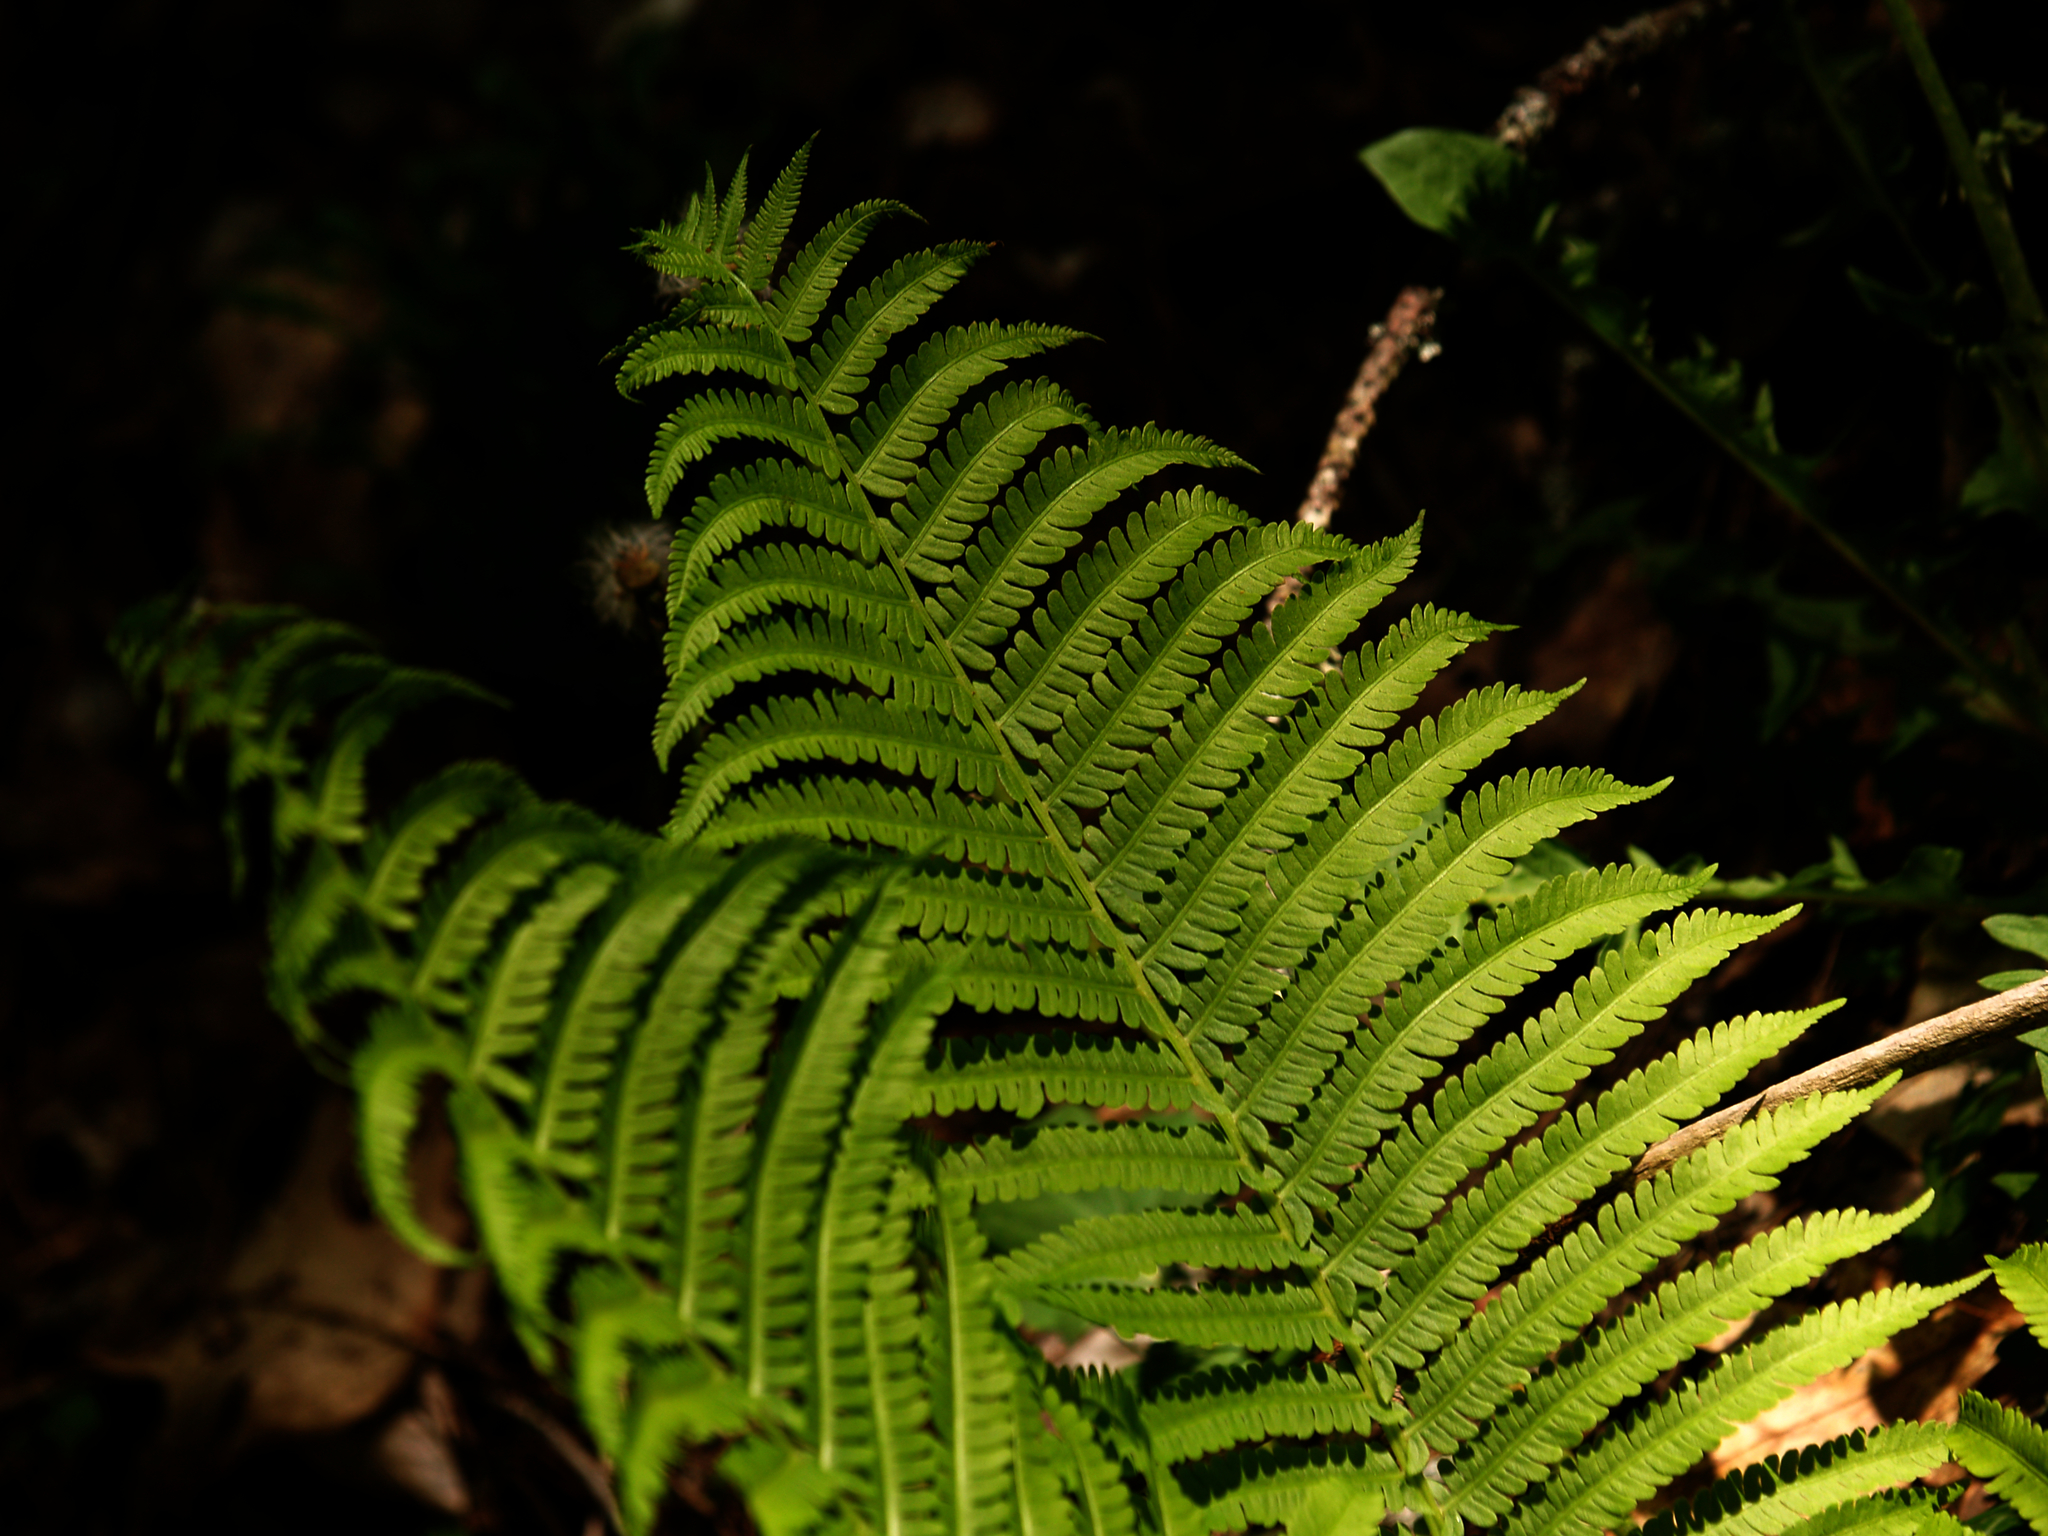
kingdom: Plantae
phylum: Tracheophyta
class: Polypodiopsida
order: Polypodiales
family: Onocleaceae
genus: Matteuccia
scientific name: Matteuccia struthiopteris
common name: Ostrich fern
